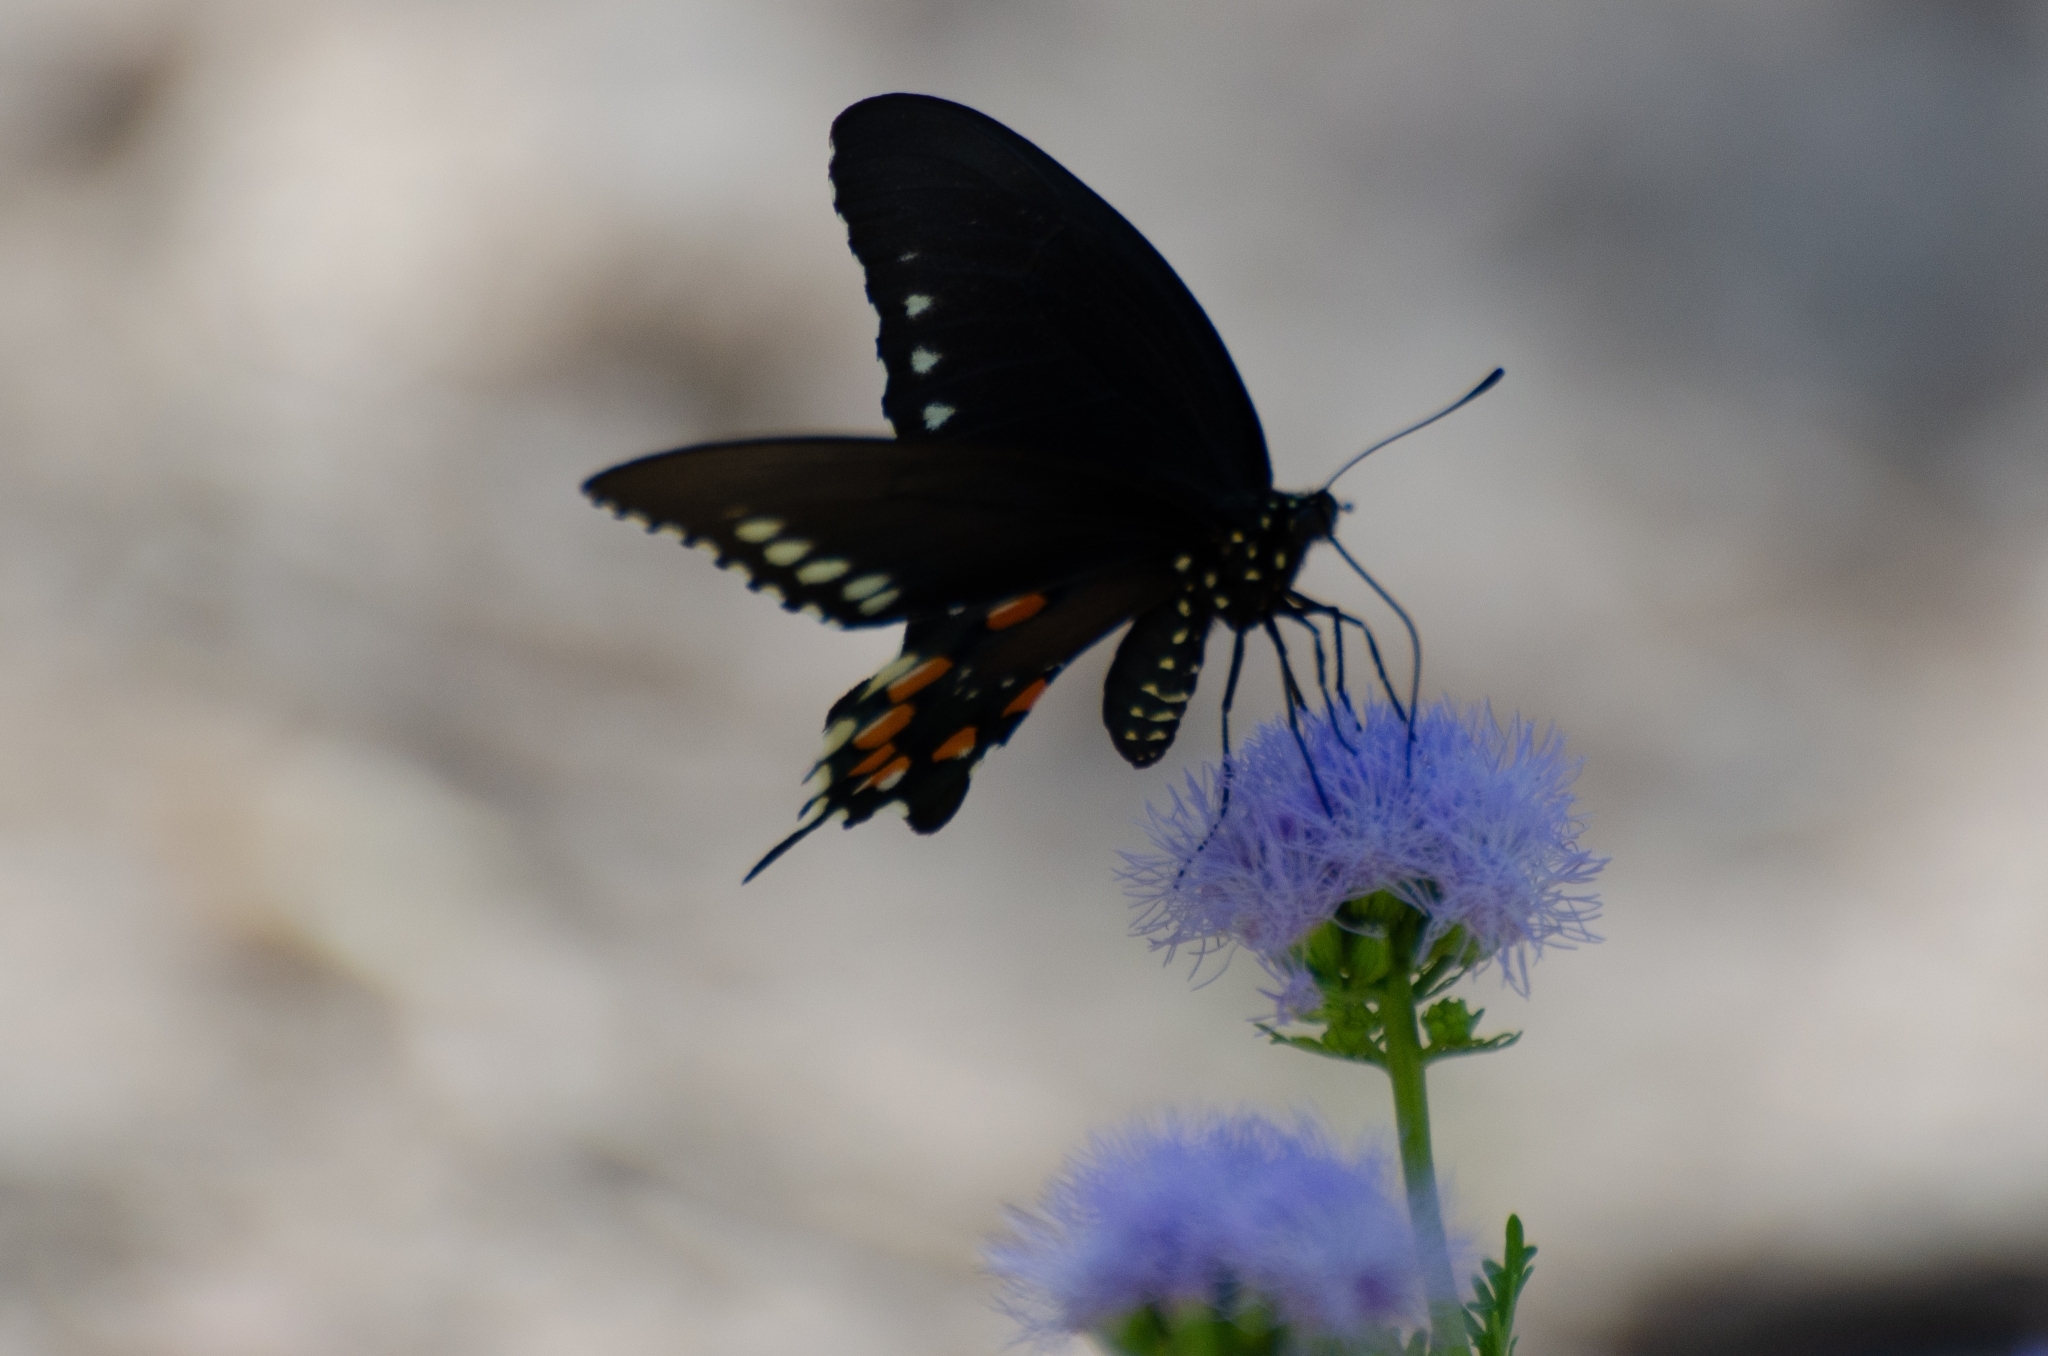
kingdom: Animalia
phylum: Arthropoda
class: Insecta
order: Lepidoptera
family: Papilionidae
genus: Battus
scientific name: Battus philenor
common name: Pipevine swallowtail
